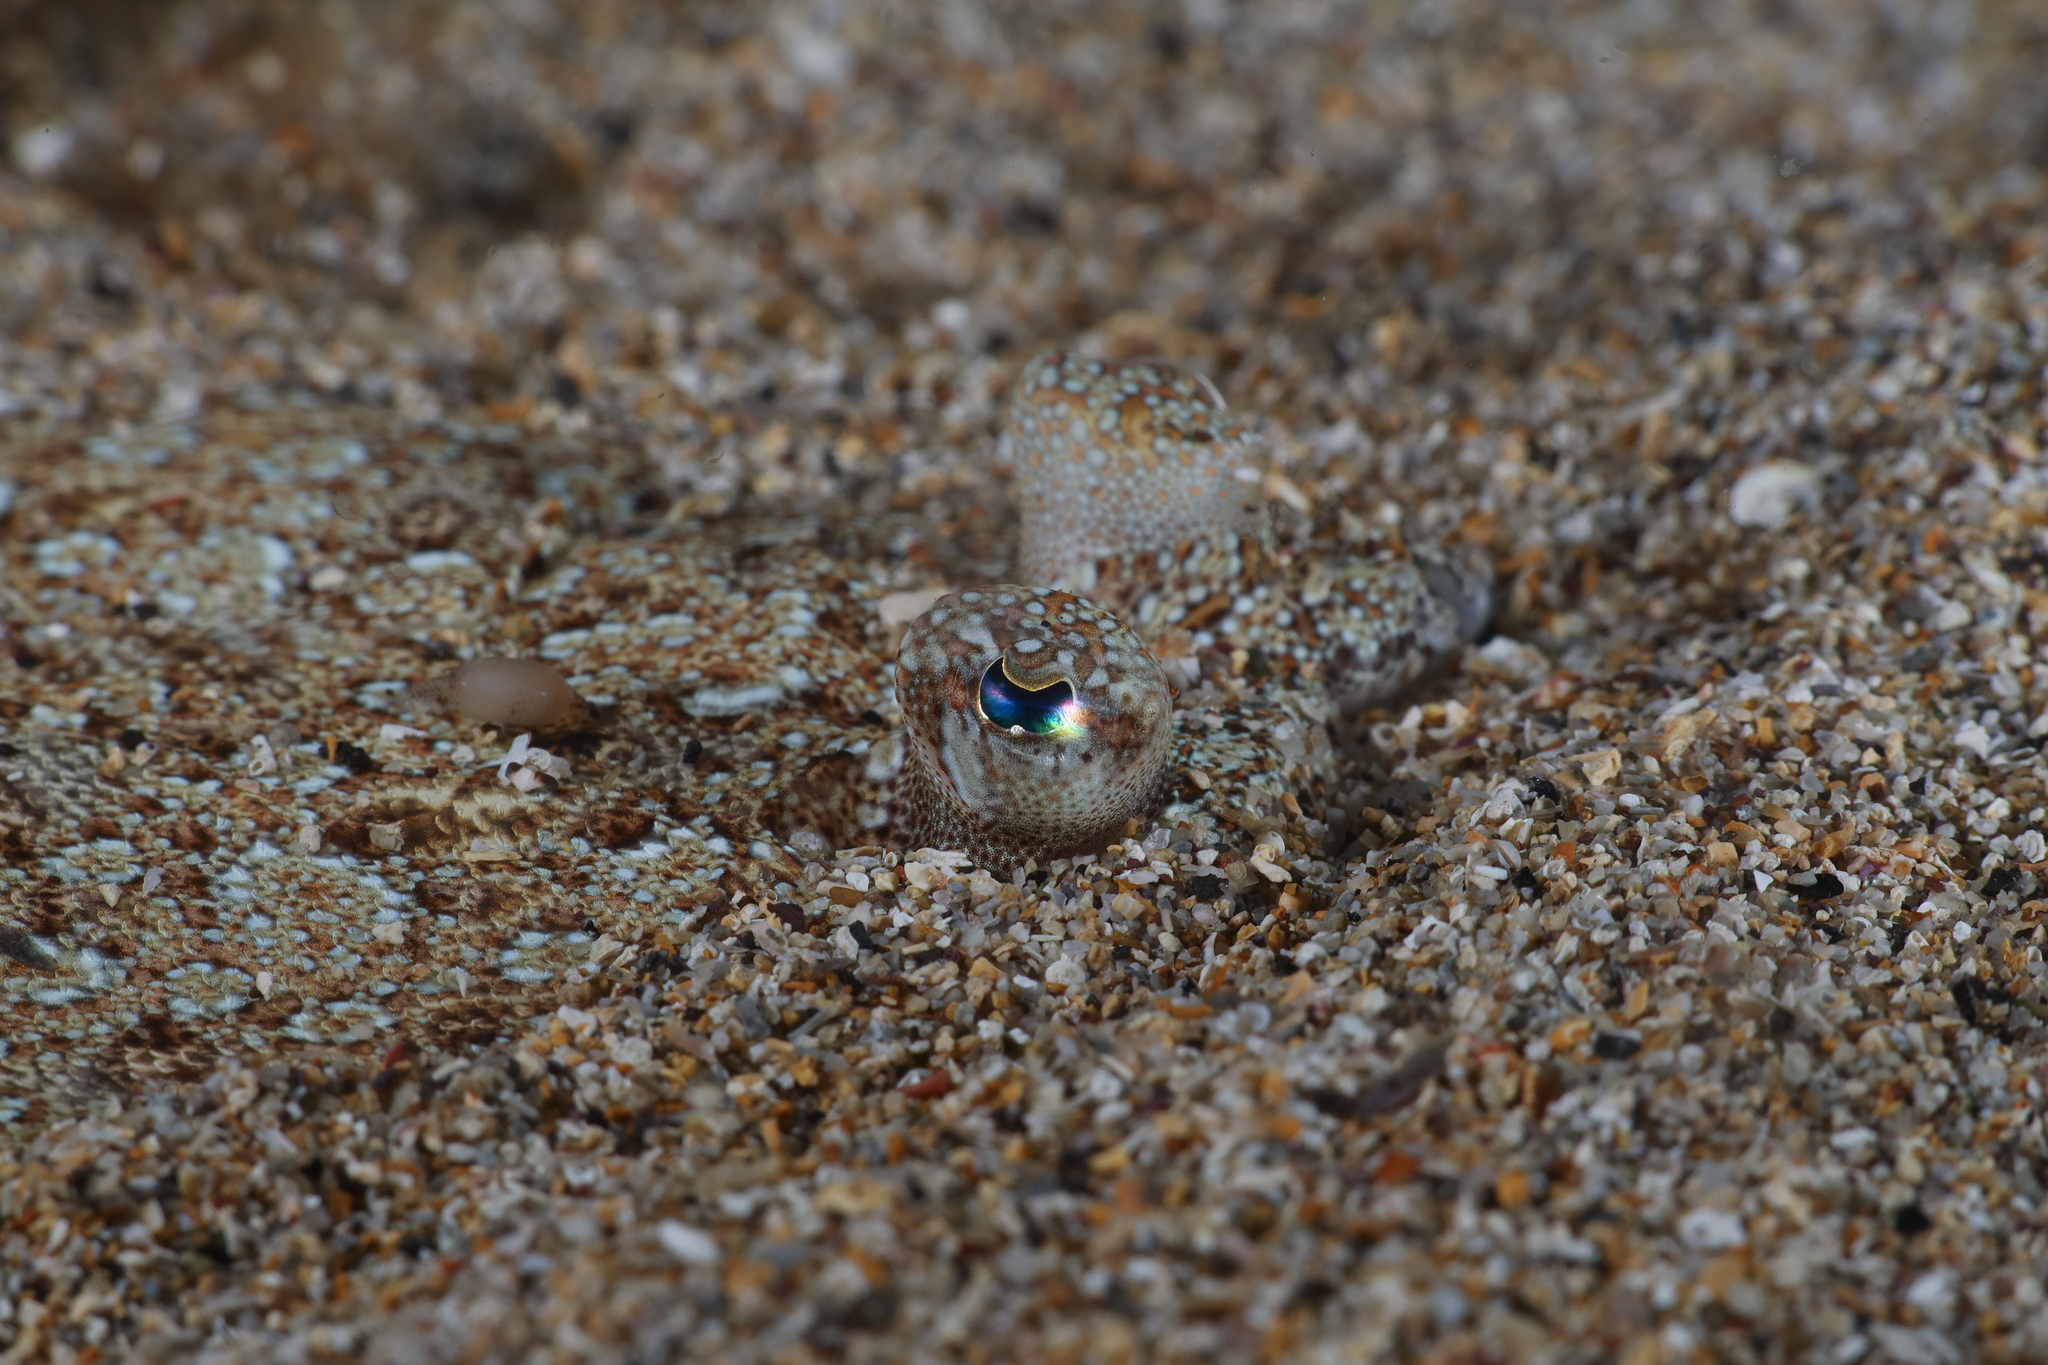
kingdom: Animalia
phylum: Chordata
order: Pleuronectiformes
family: Bothidae
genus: Bothus
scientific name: Bothus podas
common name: Wide-eyed flounder
